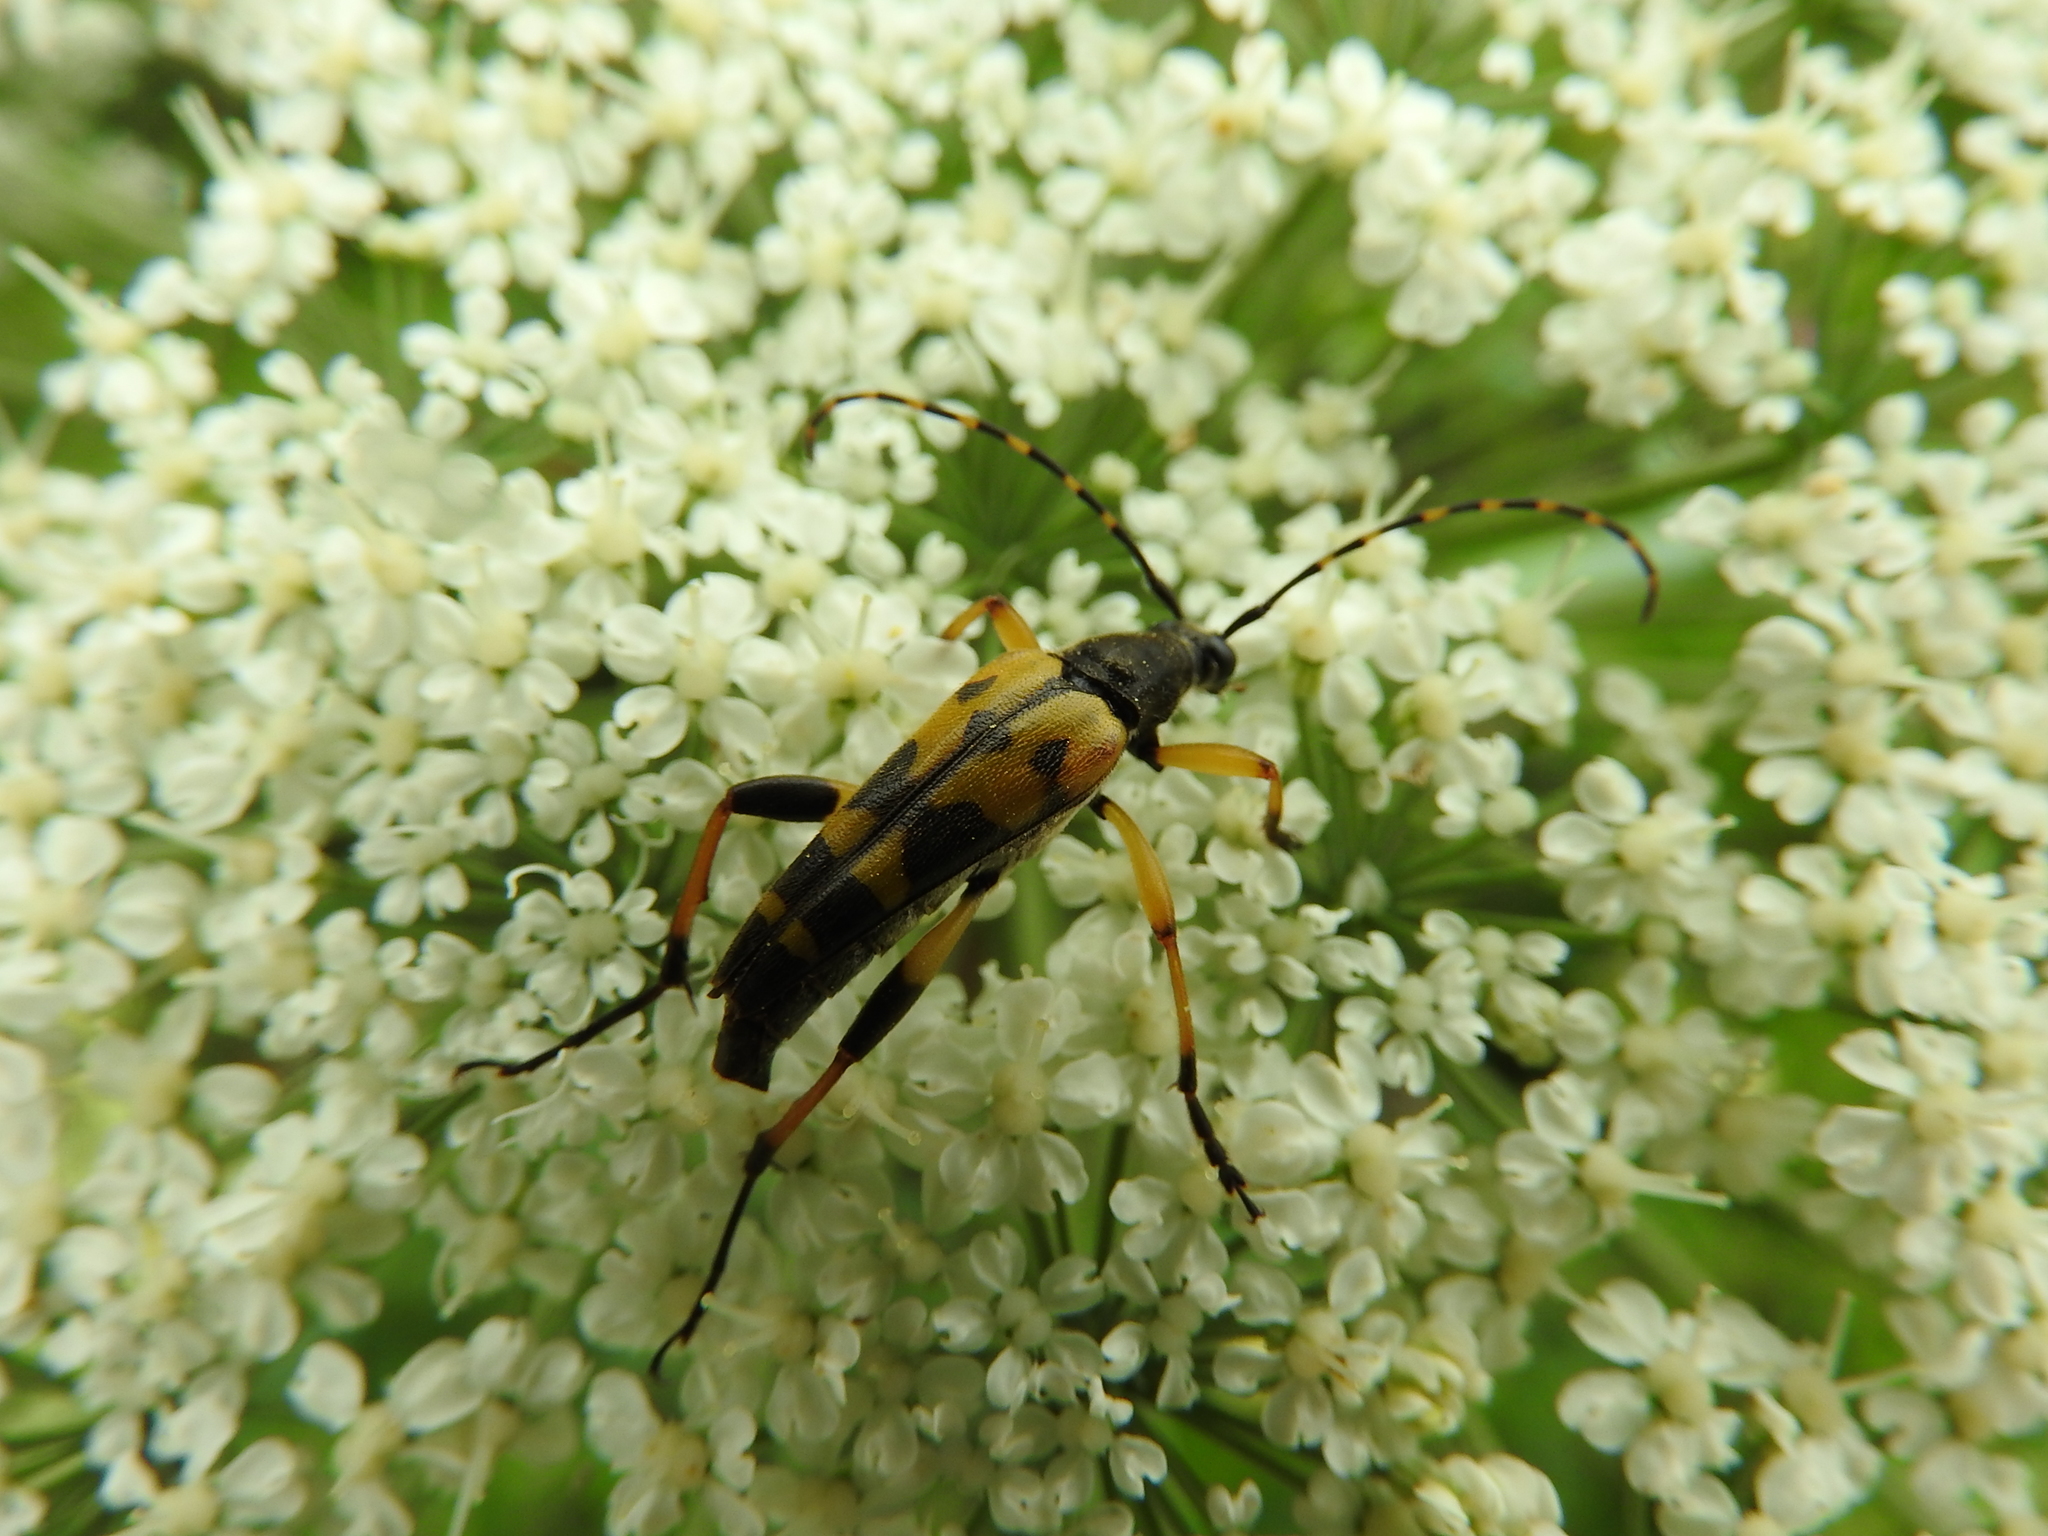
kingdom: Animalia
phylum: Arthropoda
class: Insecta
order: Coleoptera
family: Cerambycidae
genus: Rutpela
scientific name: Rutpela maculata
